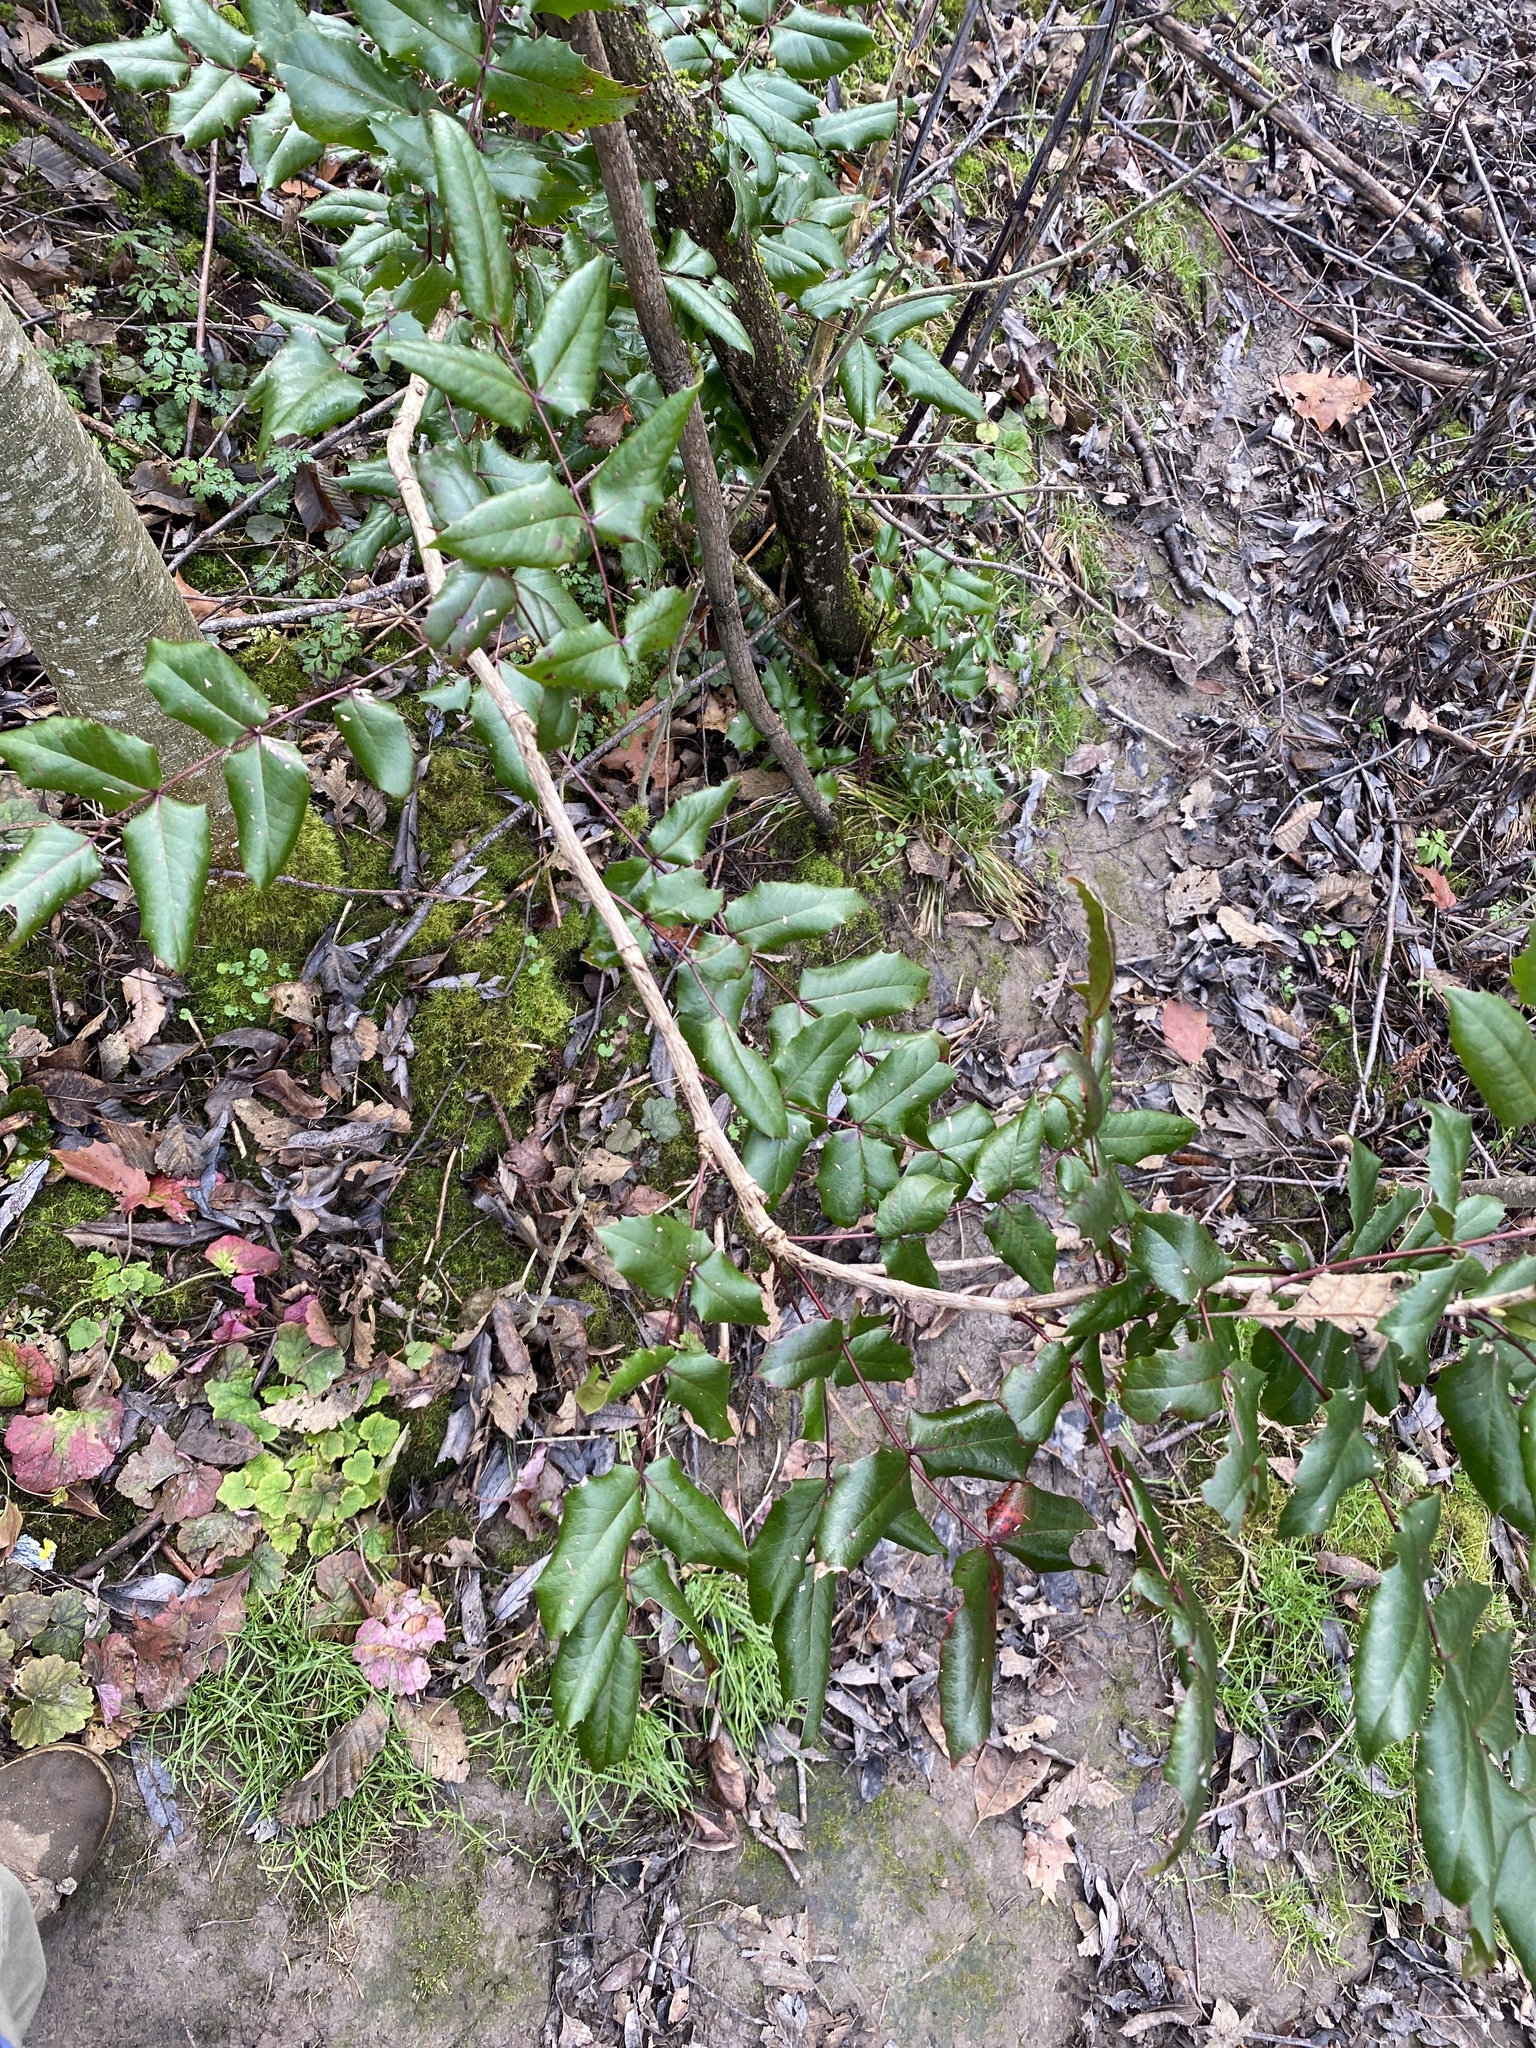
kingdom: Plantae
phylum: Tracheophyta
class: Magnoliopsida
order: Ranunculales
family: Berberidaceae
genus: Mahonia
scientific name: Mahonia aquifolium
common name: Oregon-grape
